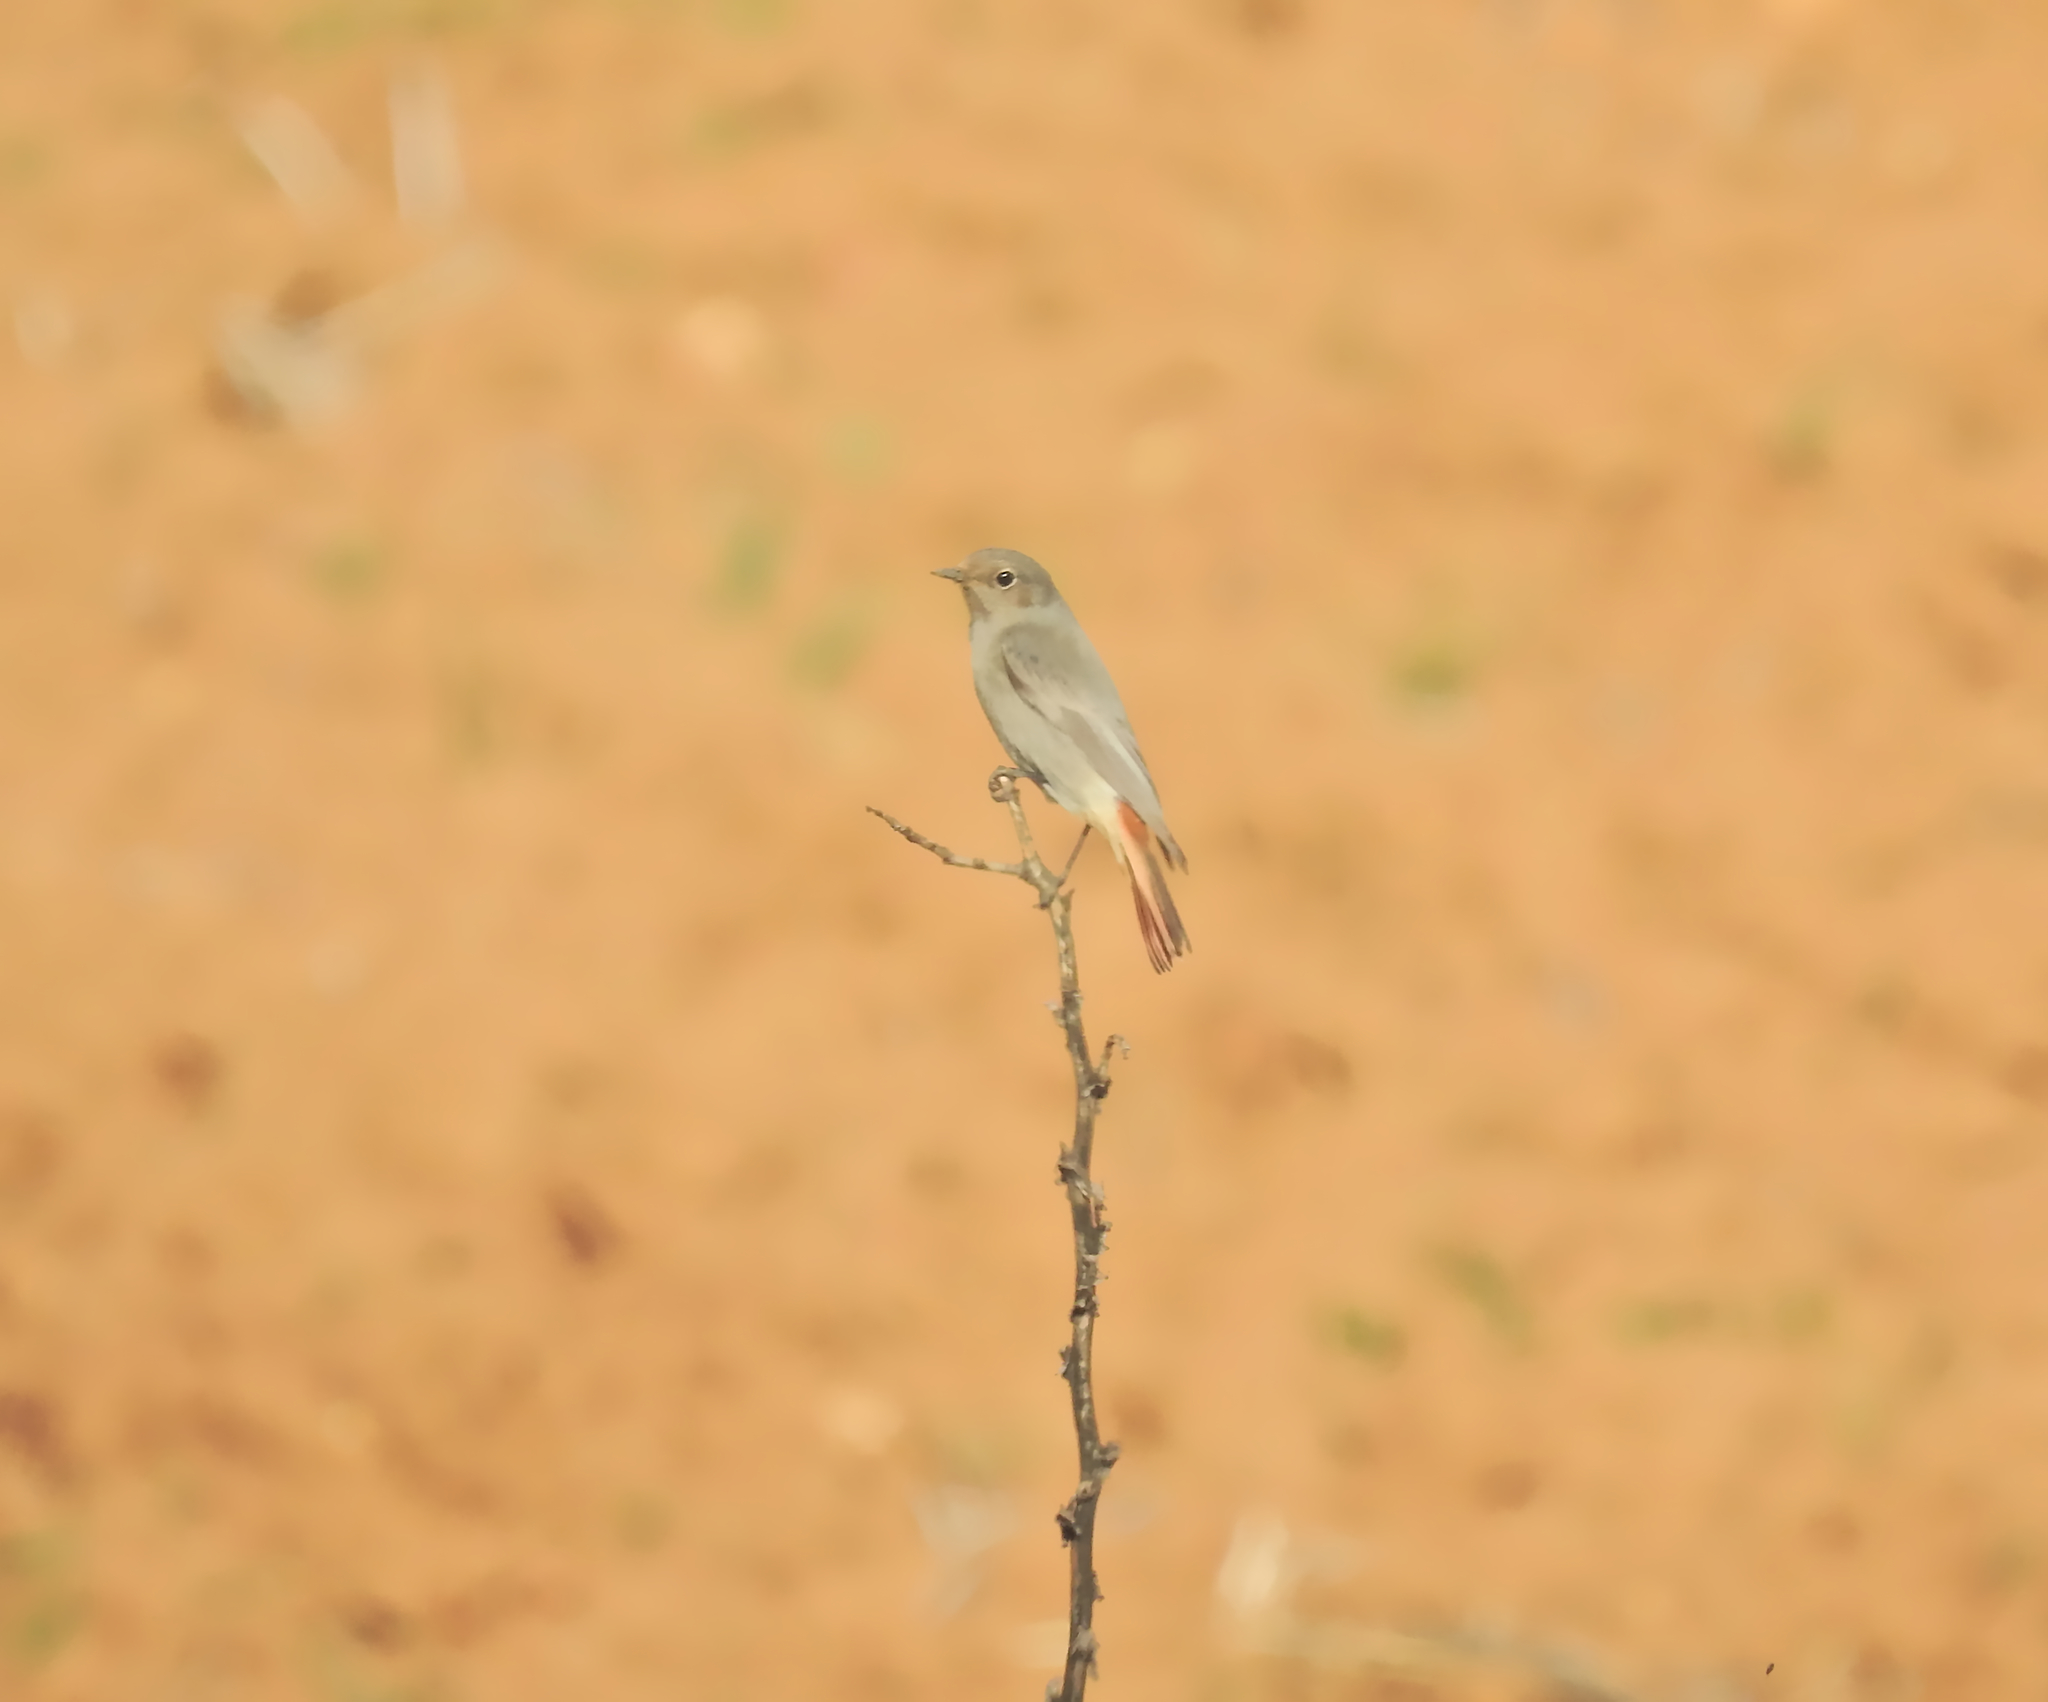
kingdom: Animalia
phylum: Chordata
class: Aves
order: Passeriformes
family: Muscicapidae
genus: Phoenicurus
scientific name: Phoenicurus ochruros
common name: Black redstart
